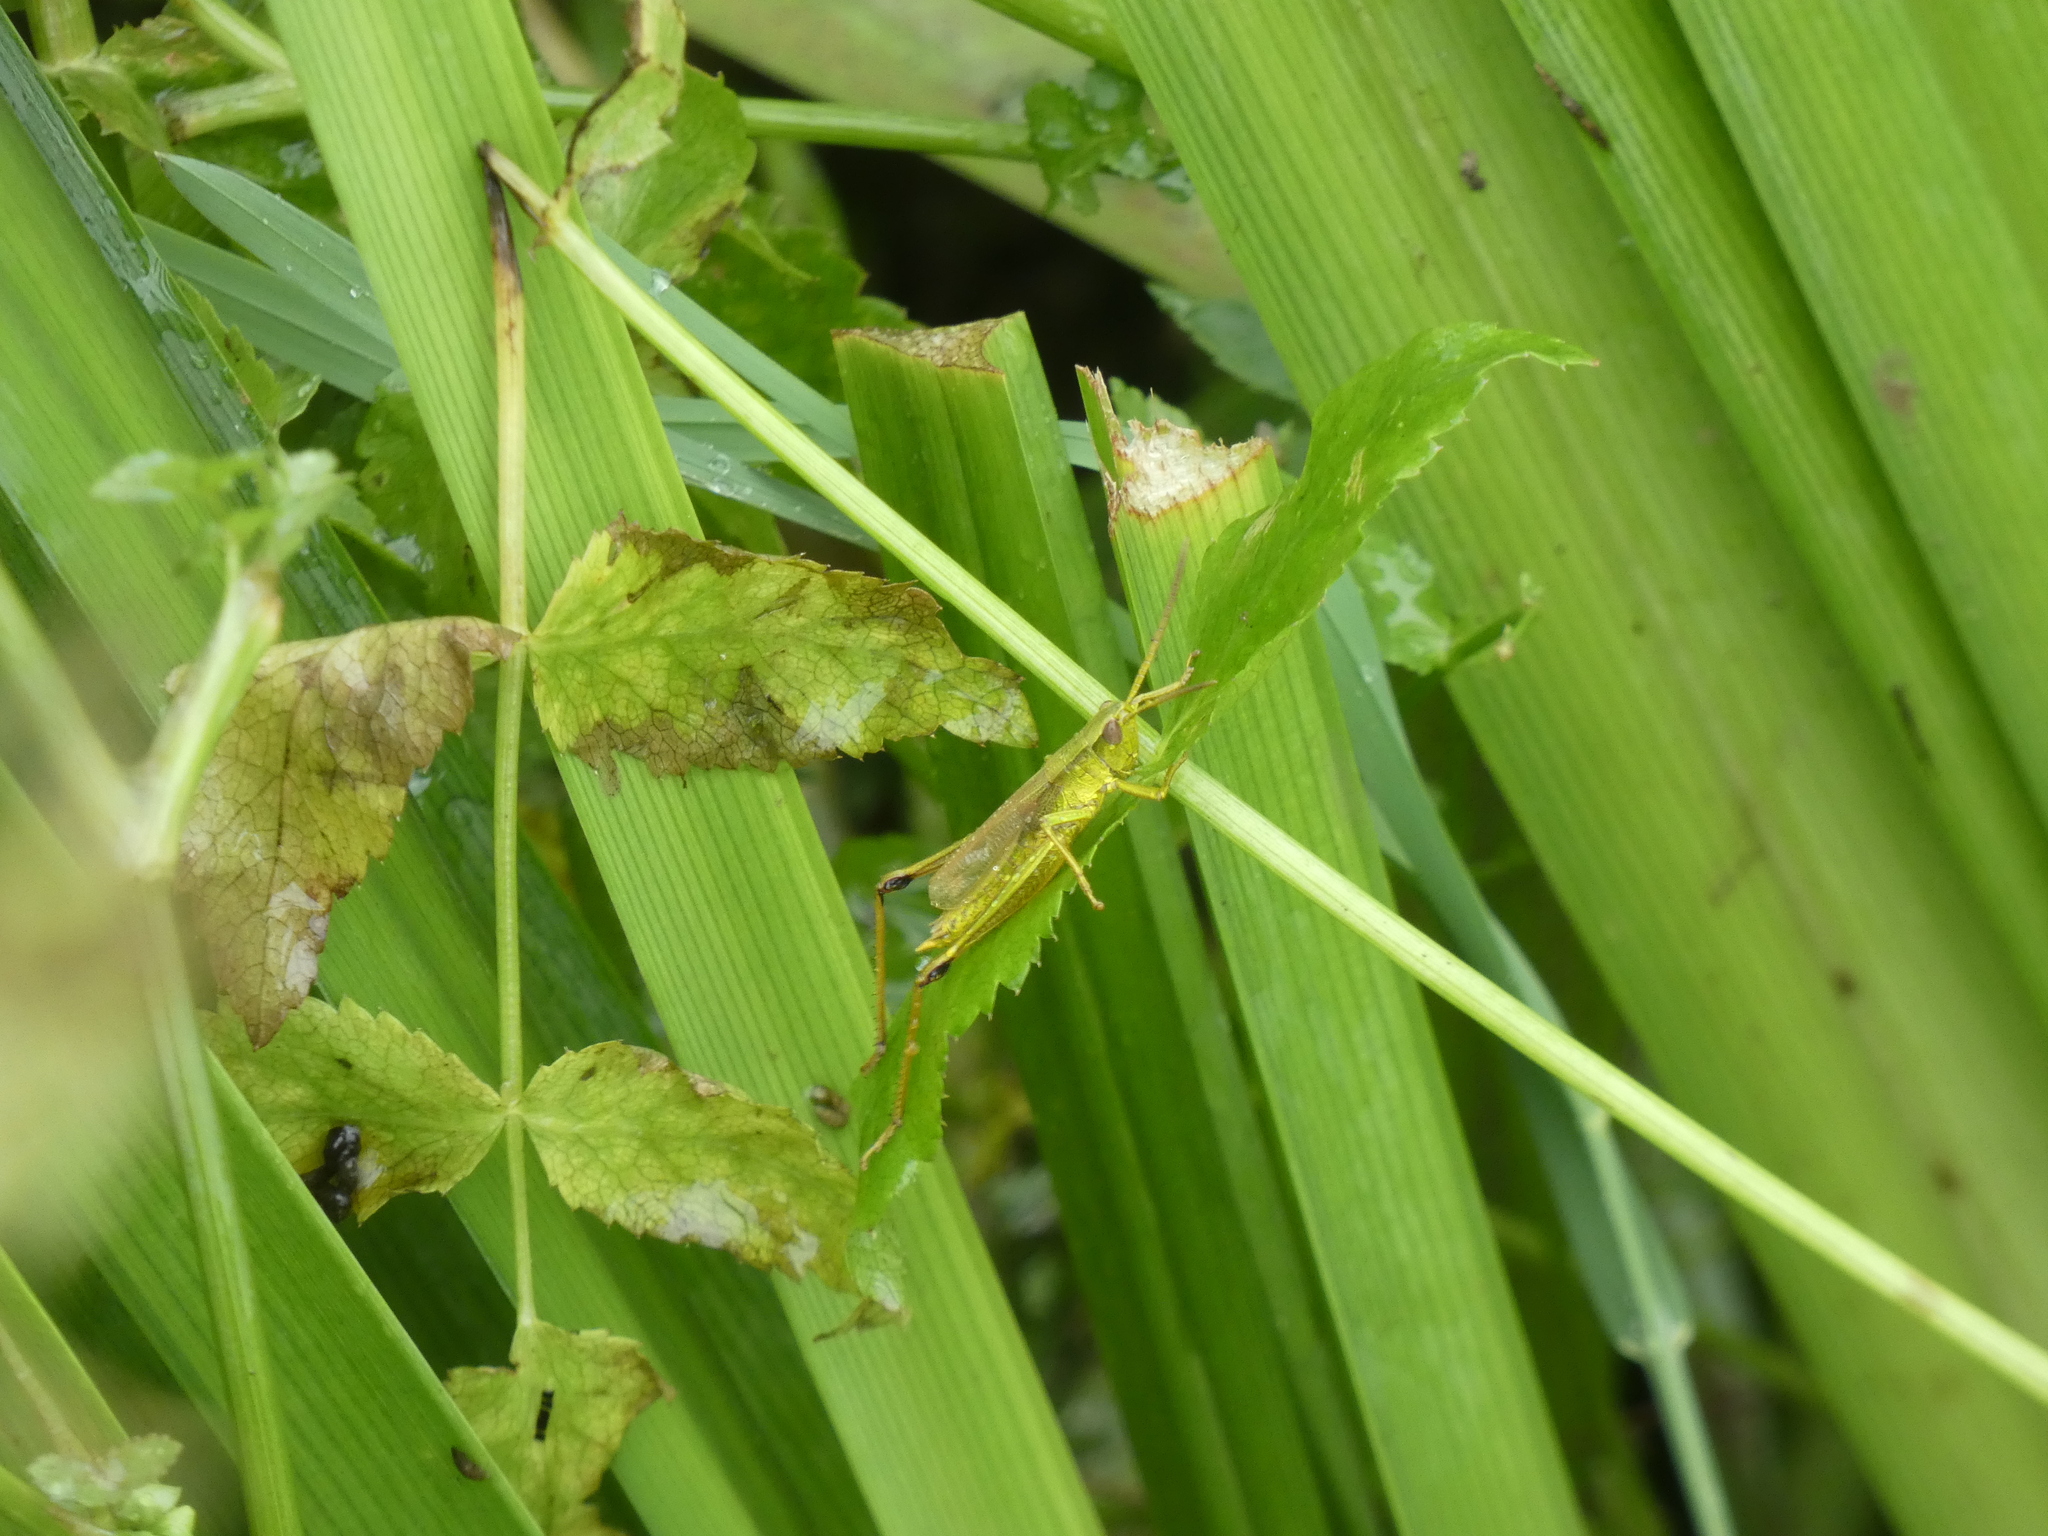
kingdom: Animalia
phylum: Arthropoda
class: Insecta
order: Orthoptera
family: Acrididae
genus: Chrysochraon
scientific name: Chrysochraon dispar
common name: Large gold grasshopper
